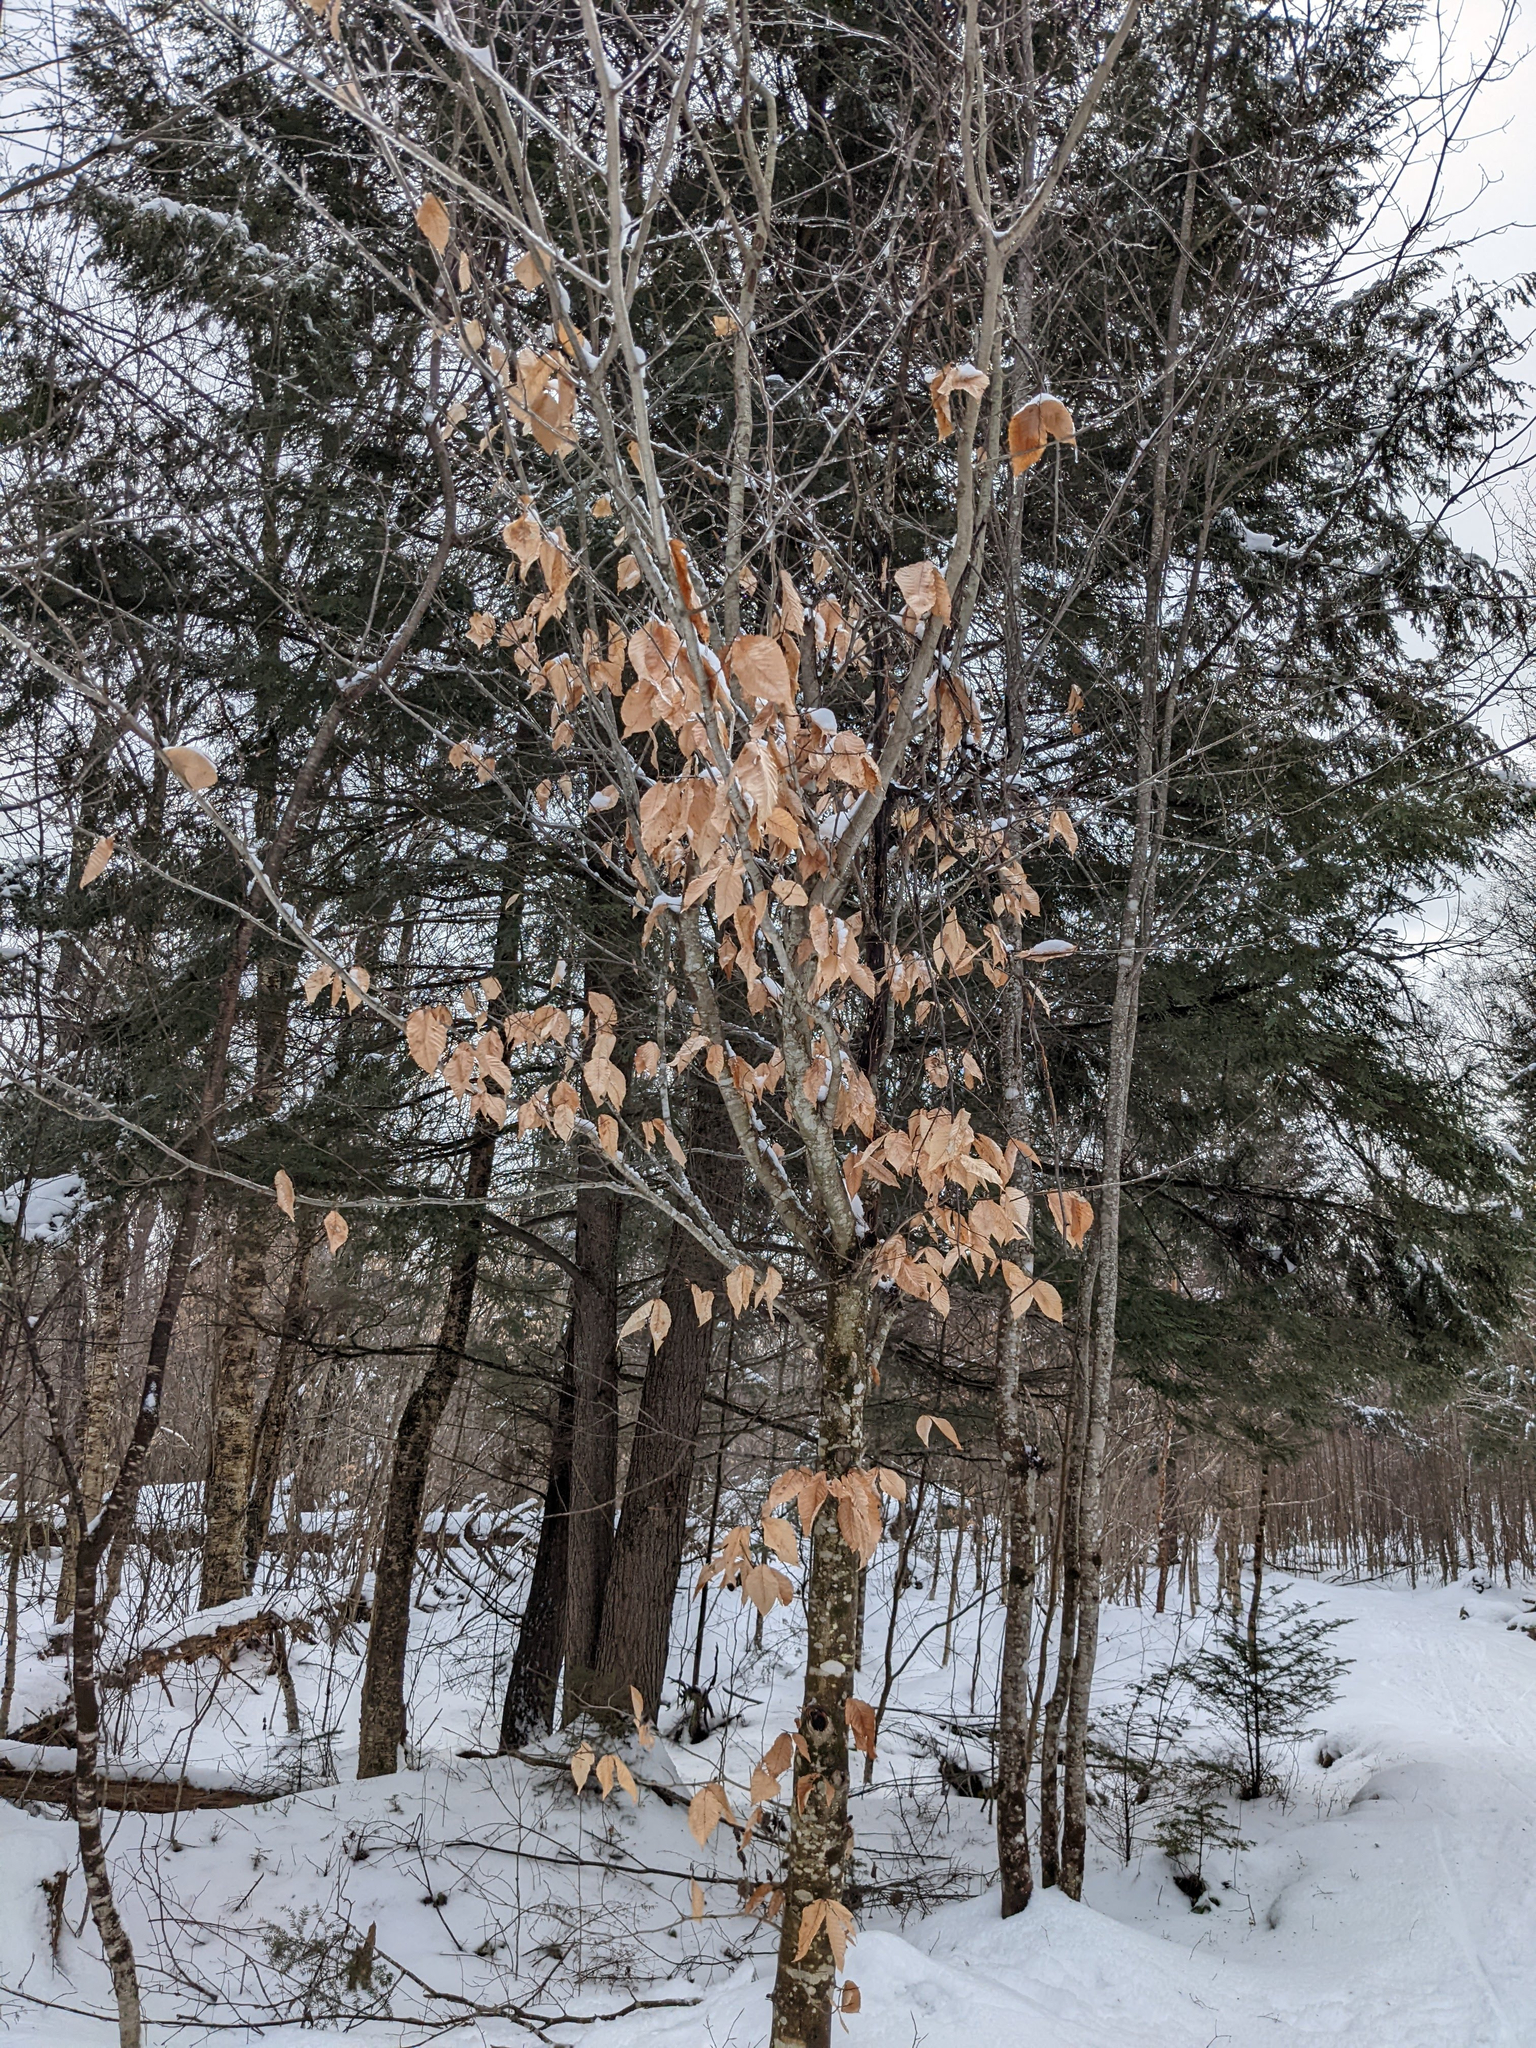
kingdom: Plantae
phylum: Tracheophyta
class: Magnoliopsida
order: Fagales
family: Fagaceae
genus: Fagus
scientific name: Fagus grandifolia
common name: American beech
